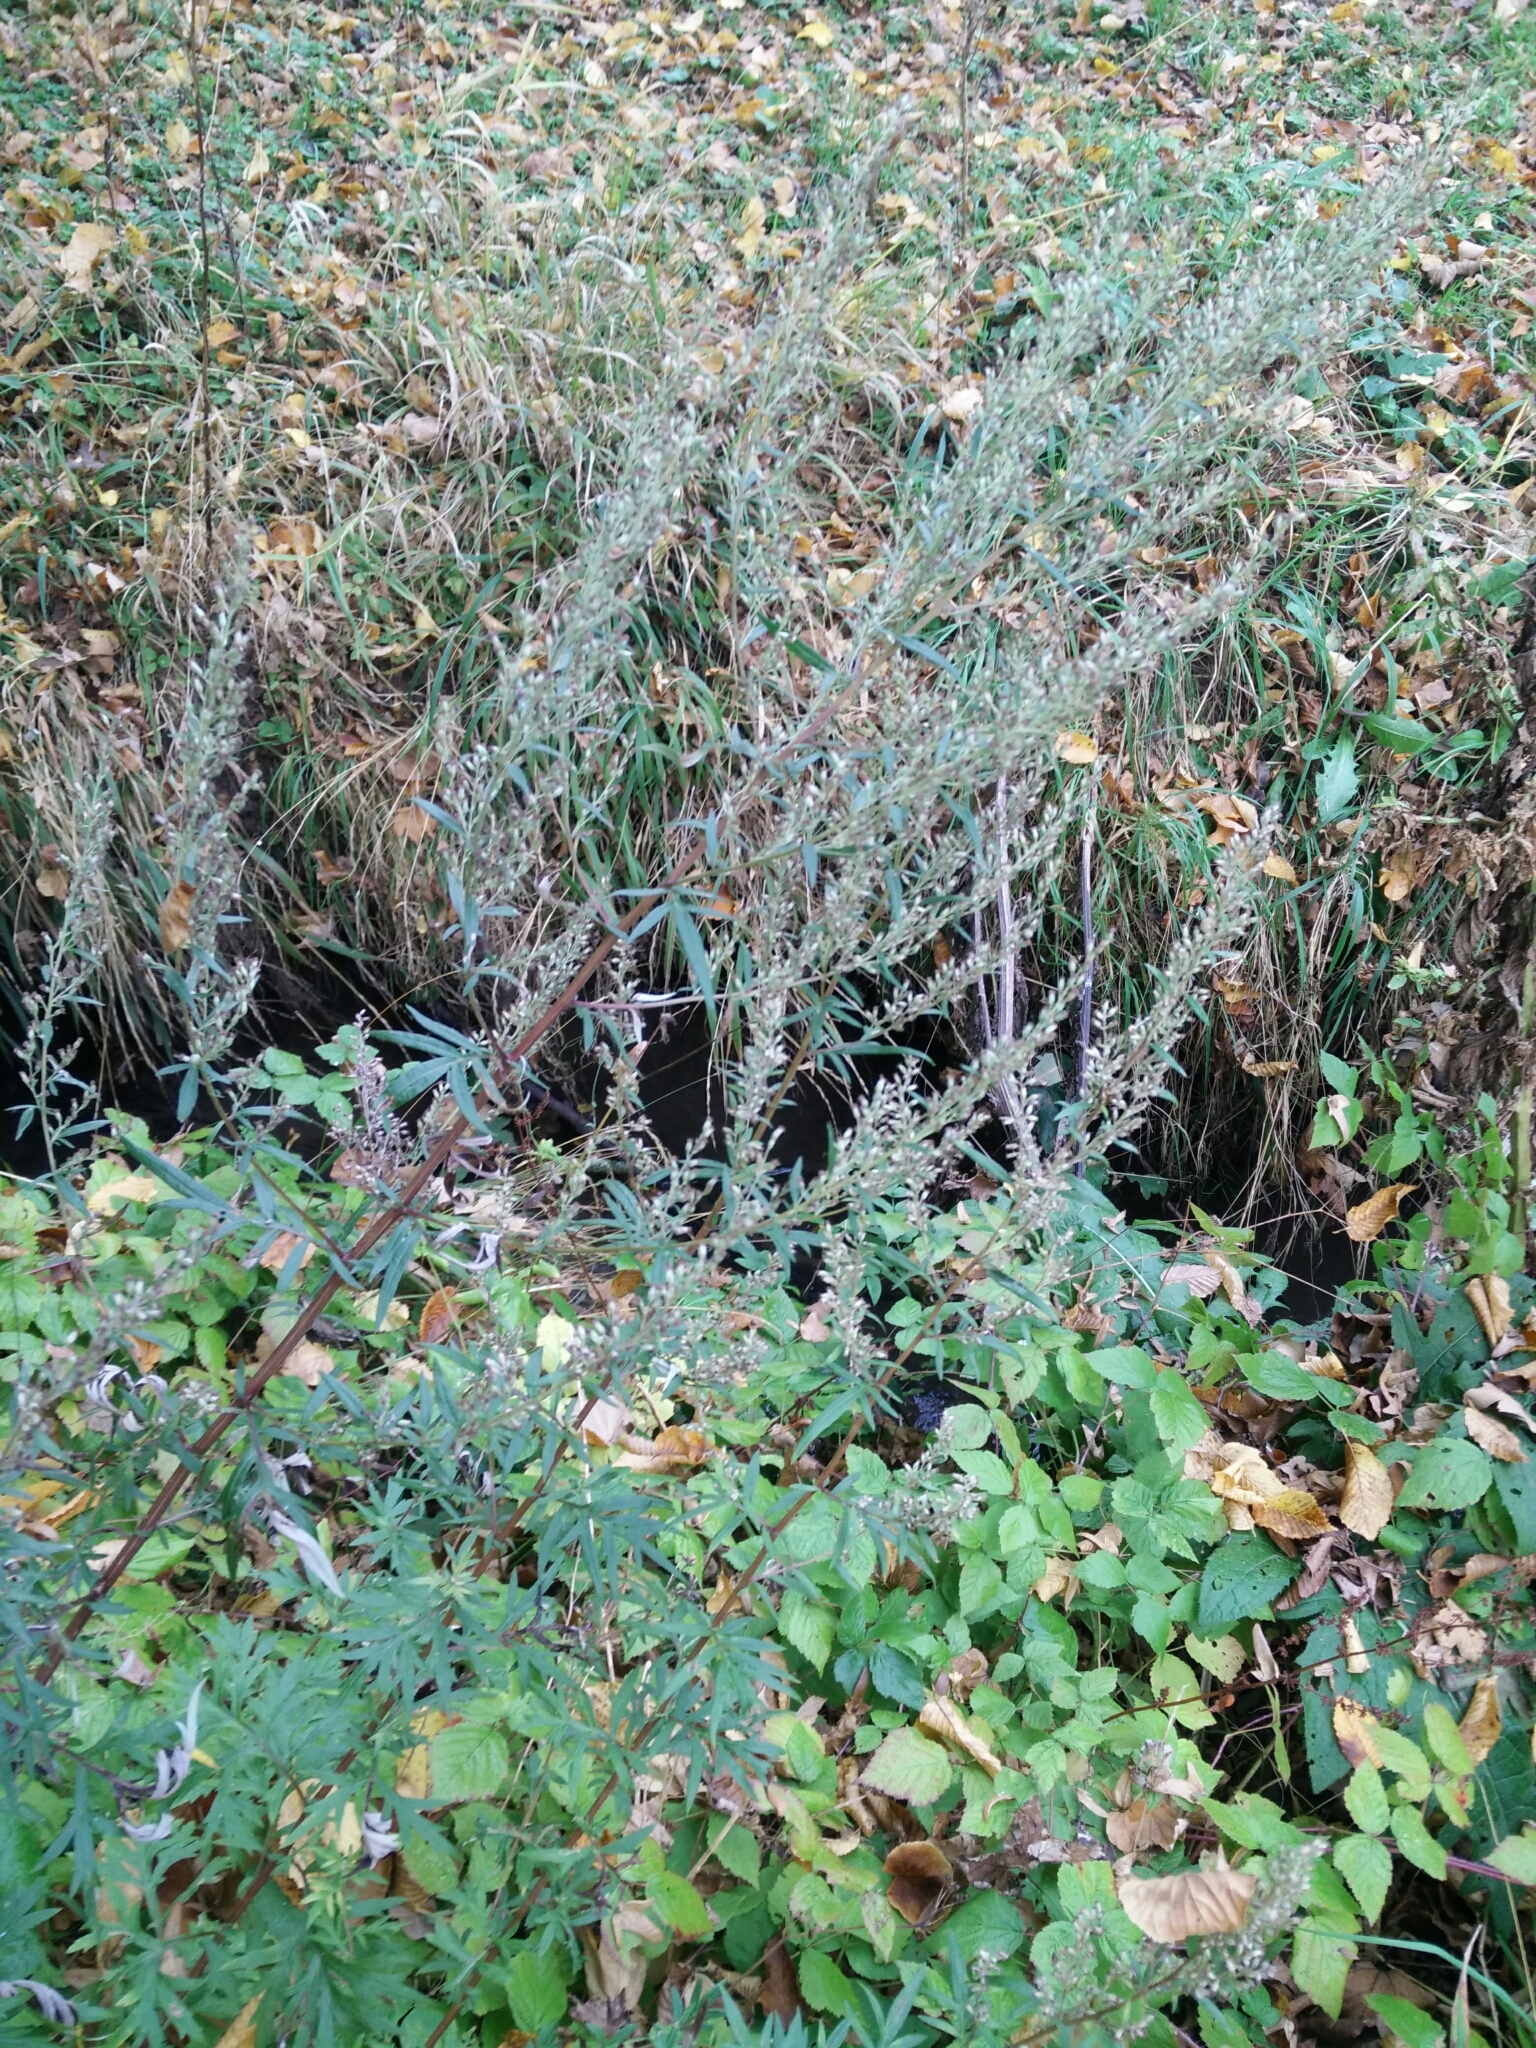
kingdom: Plantae
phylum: Tracheophyta
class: Magnoliopsida
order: Asterales
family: Asteraceae
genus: Artemisia
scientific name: Artemisia vulgaris
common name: Mugwort
